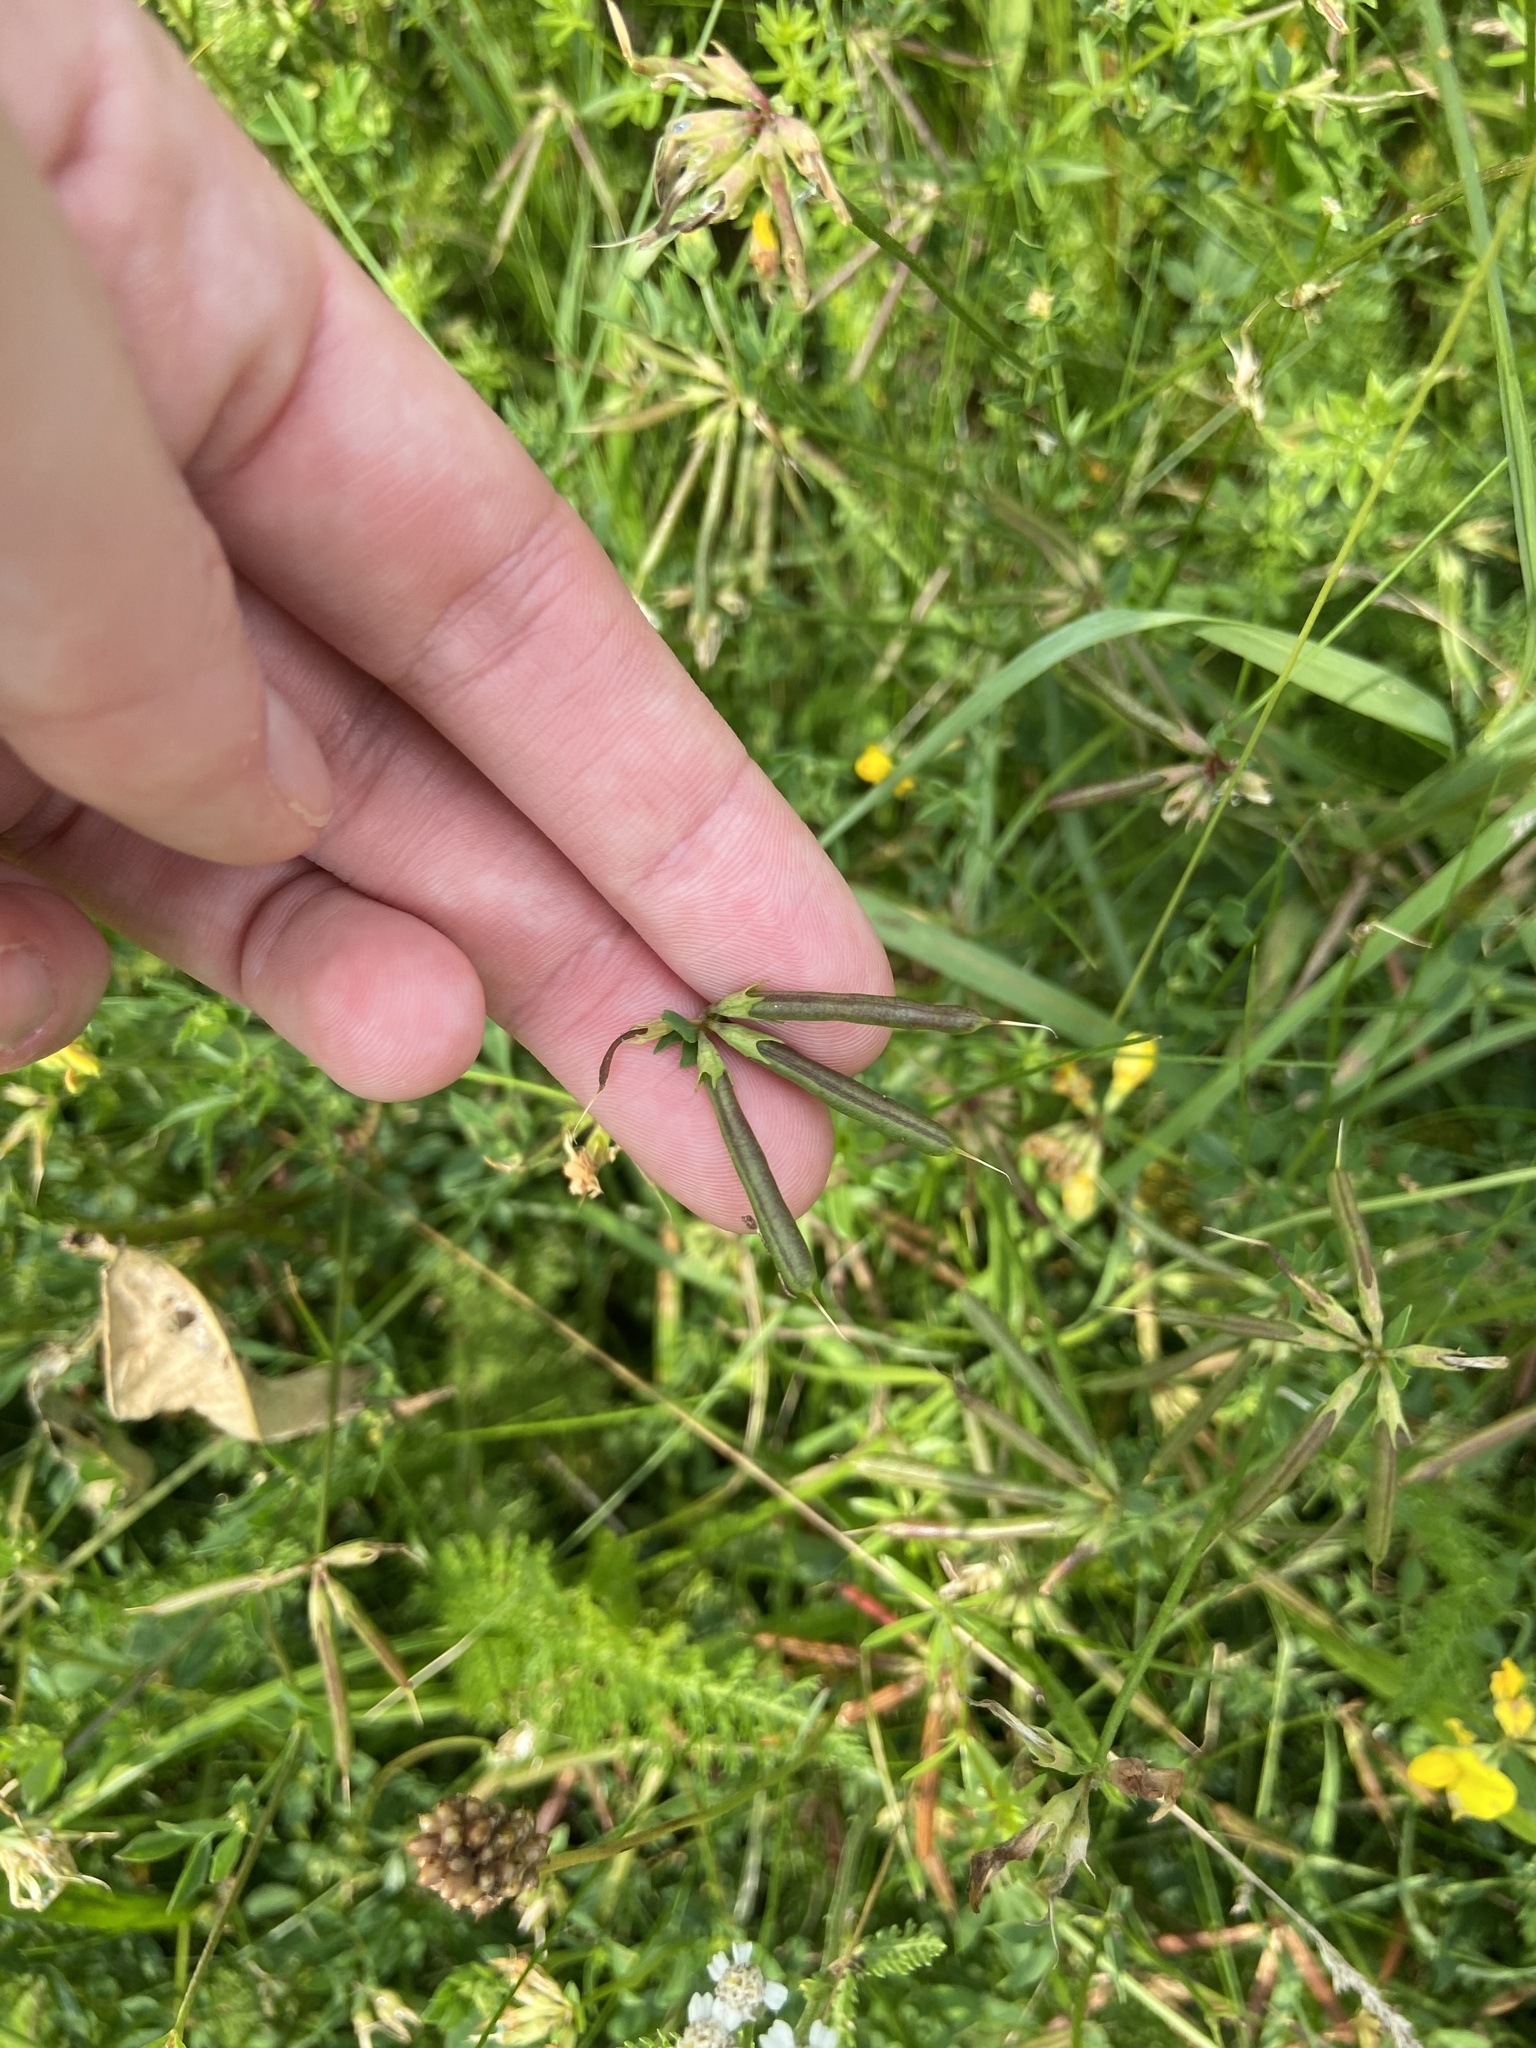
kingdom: Plantae
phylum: Tracheophyta
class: Magnoliopsida
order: Fabales
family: Fabaceae
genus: Lotus
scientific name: Lotus
